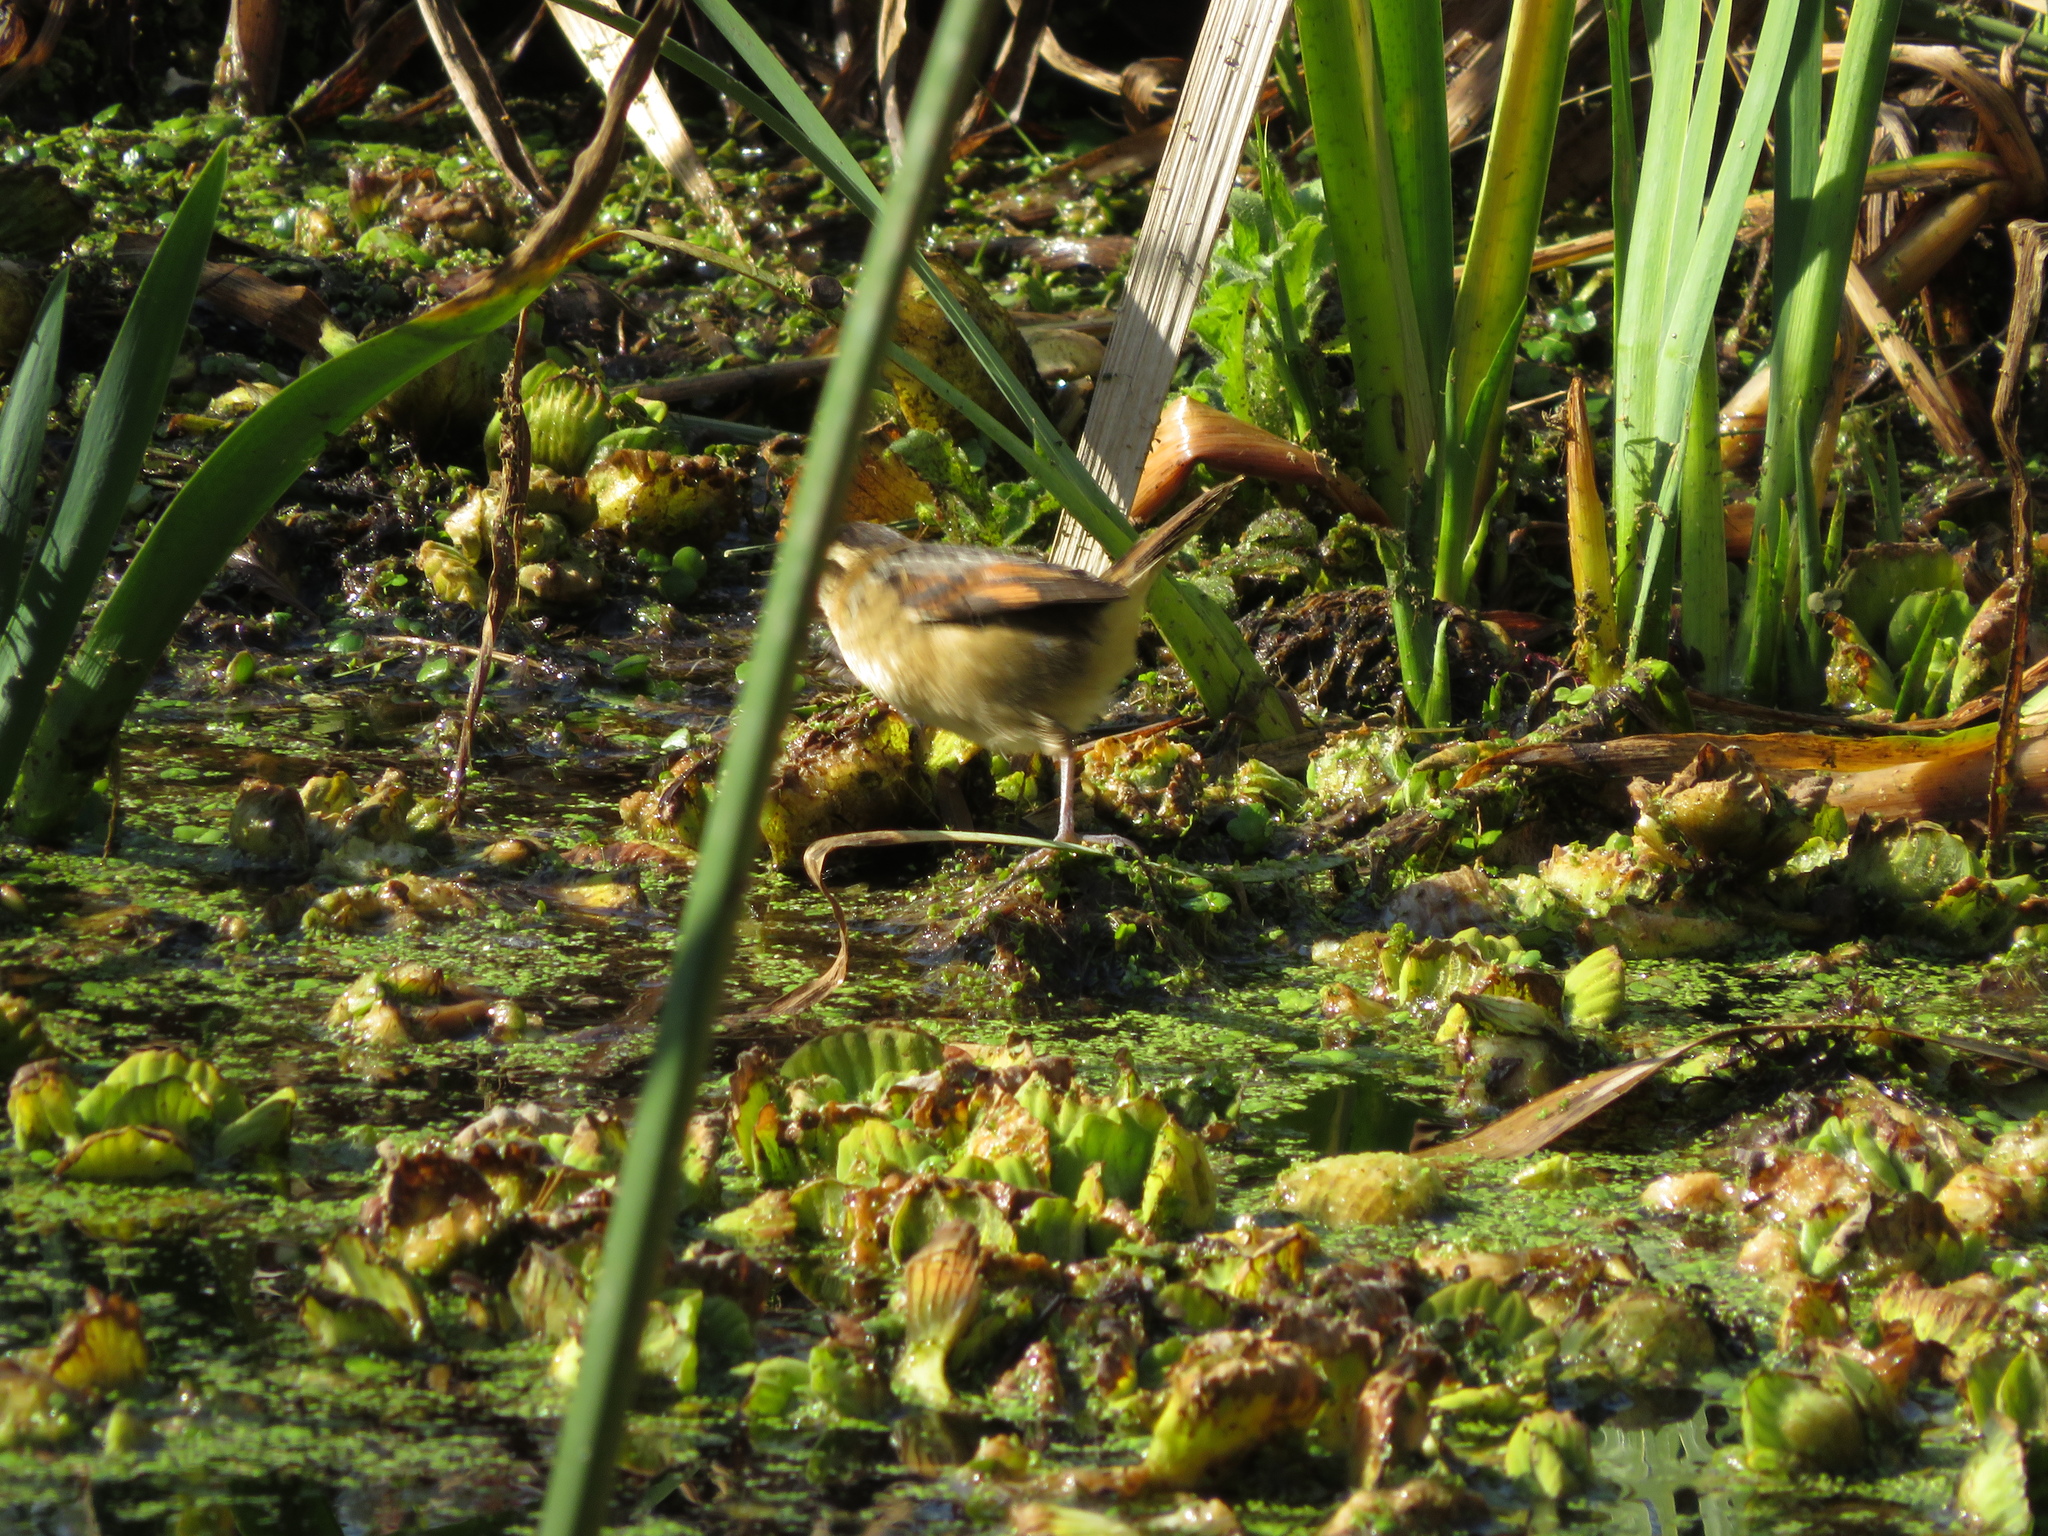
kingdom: Animalia
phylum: Chordata
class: Aves
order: Passeriformes
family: Furnariidae
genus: Phleocryptes
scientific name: Phleocryptes melanops
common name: Wren-like rushbird
